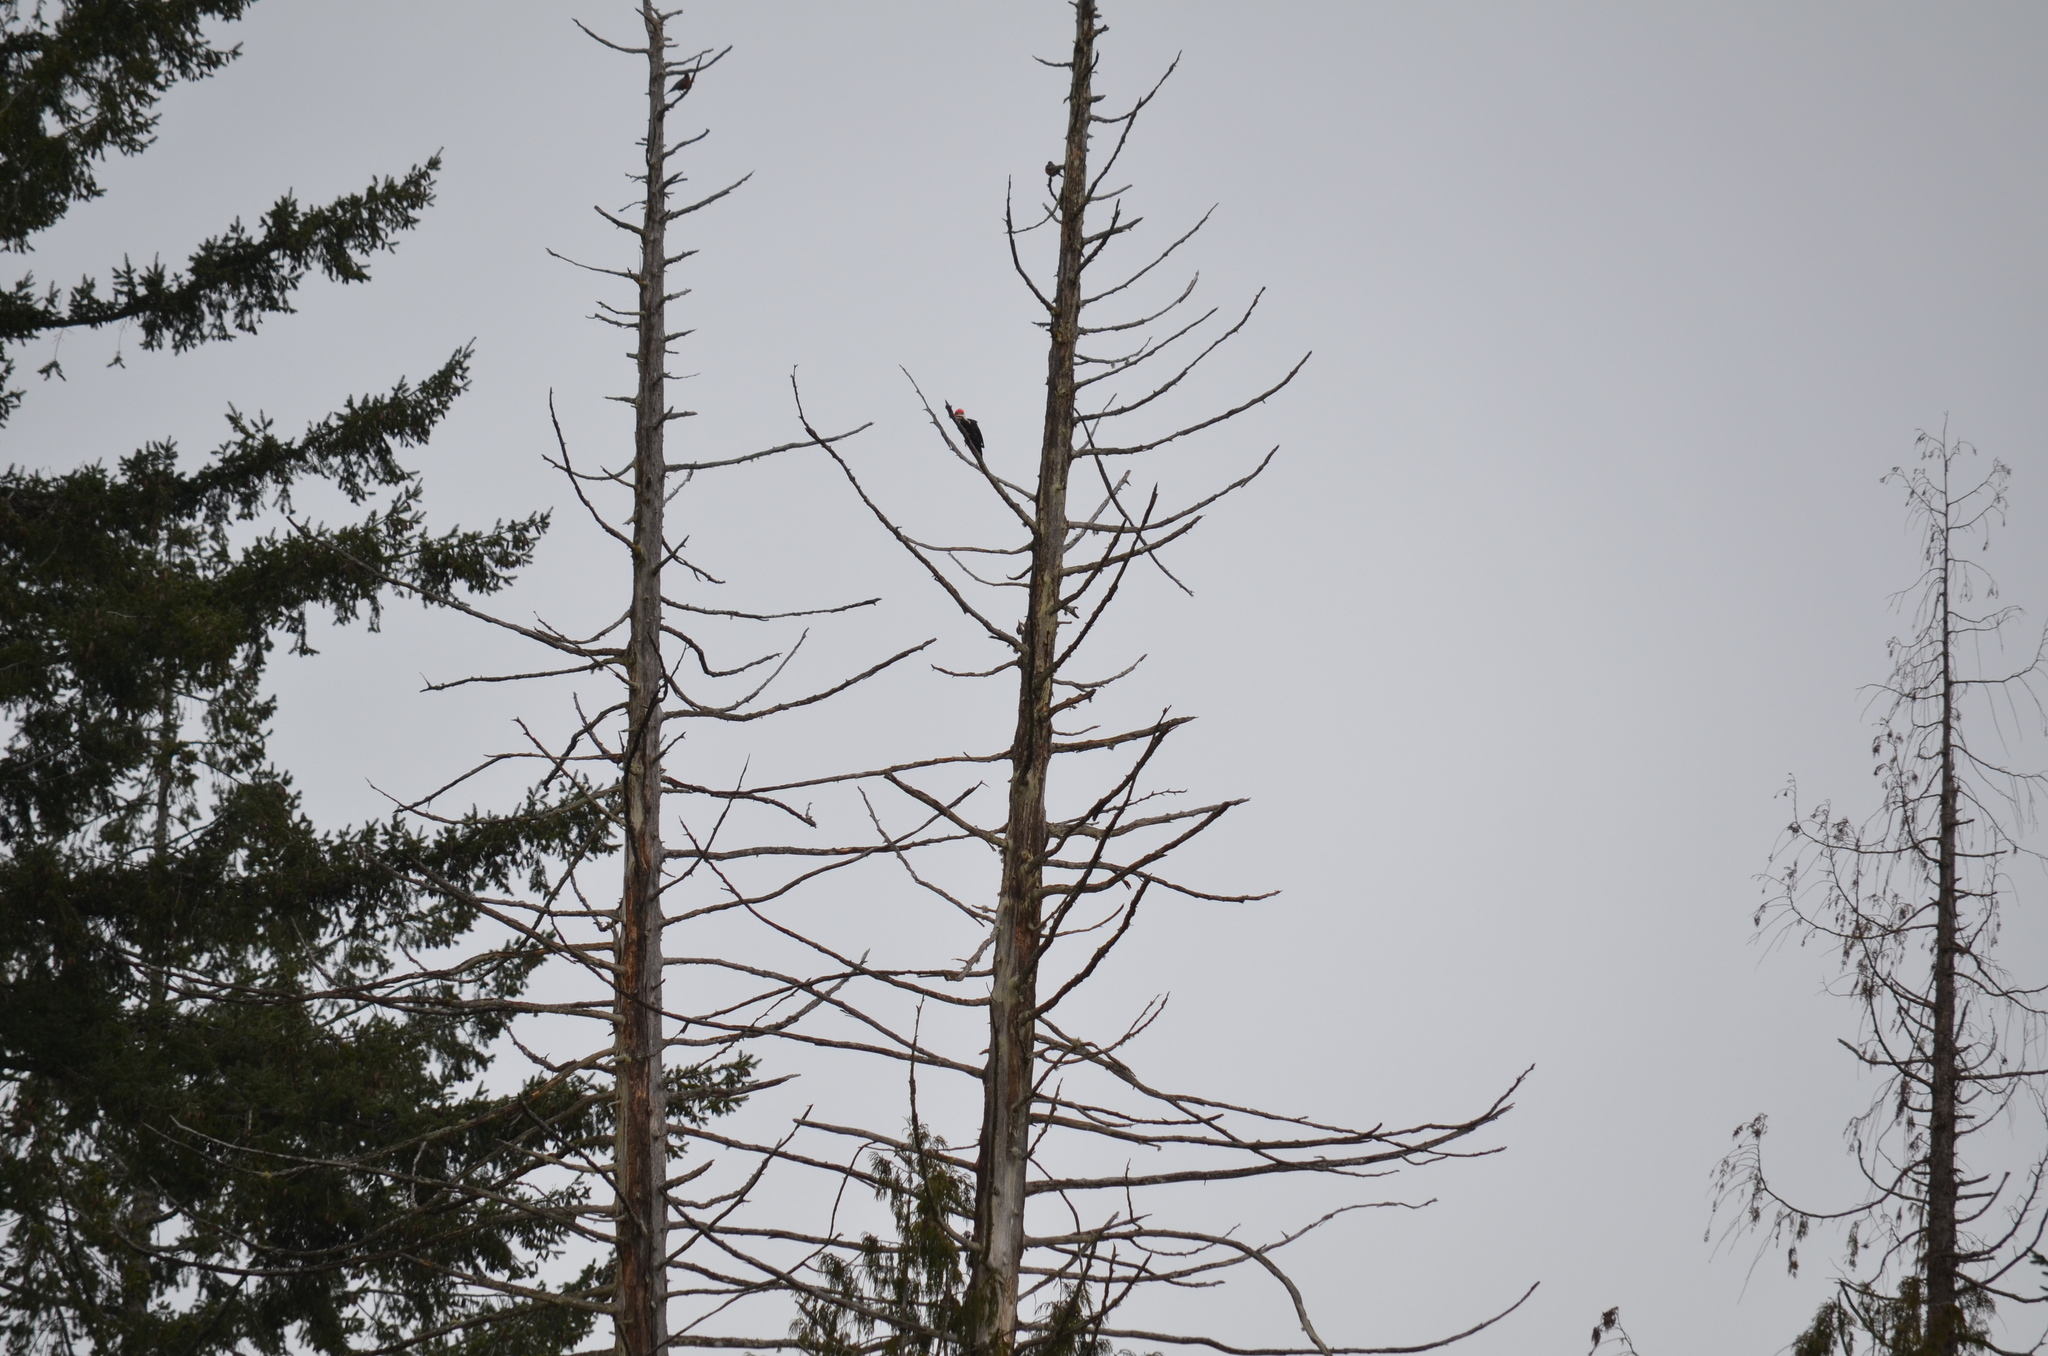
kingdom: Animalia
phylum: Chordata
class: Aves
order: Piciformes
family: Picidae
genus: Dryocopus
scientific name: Dryocopus pileatus
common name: Pileated woodpecker
